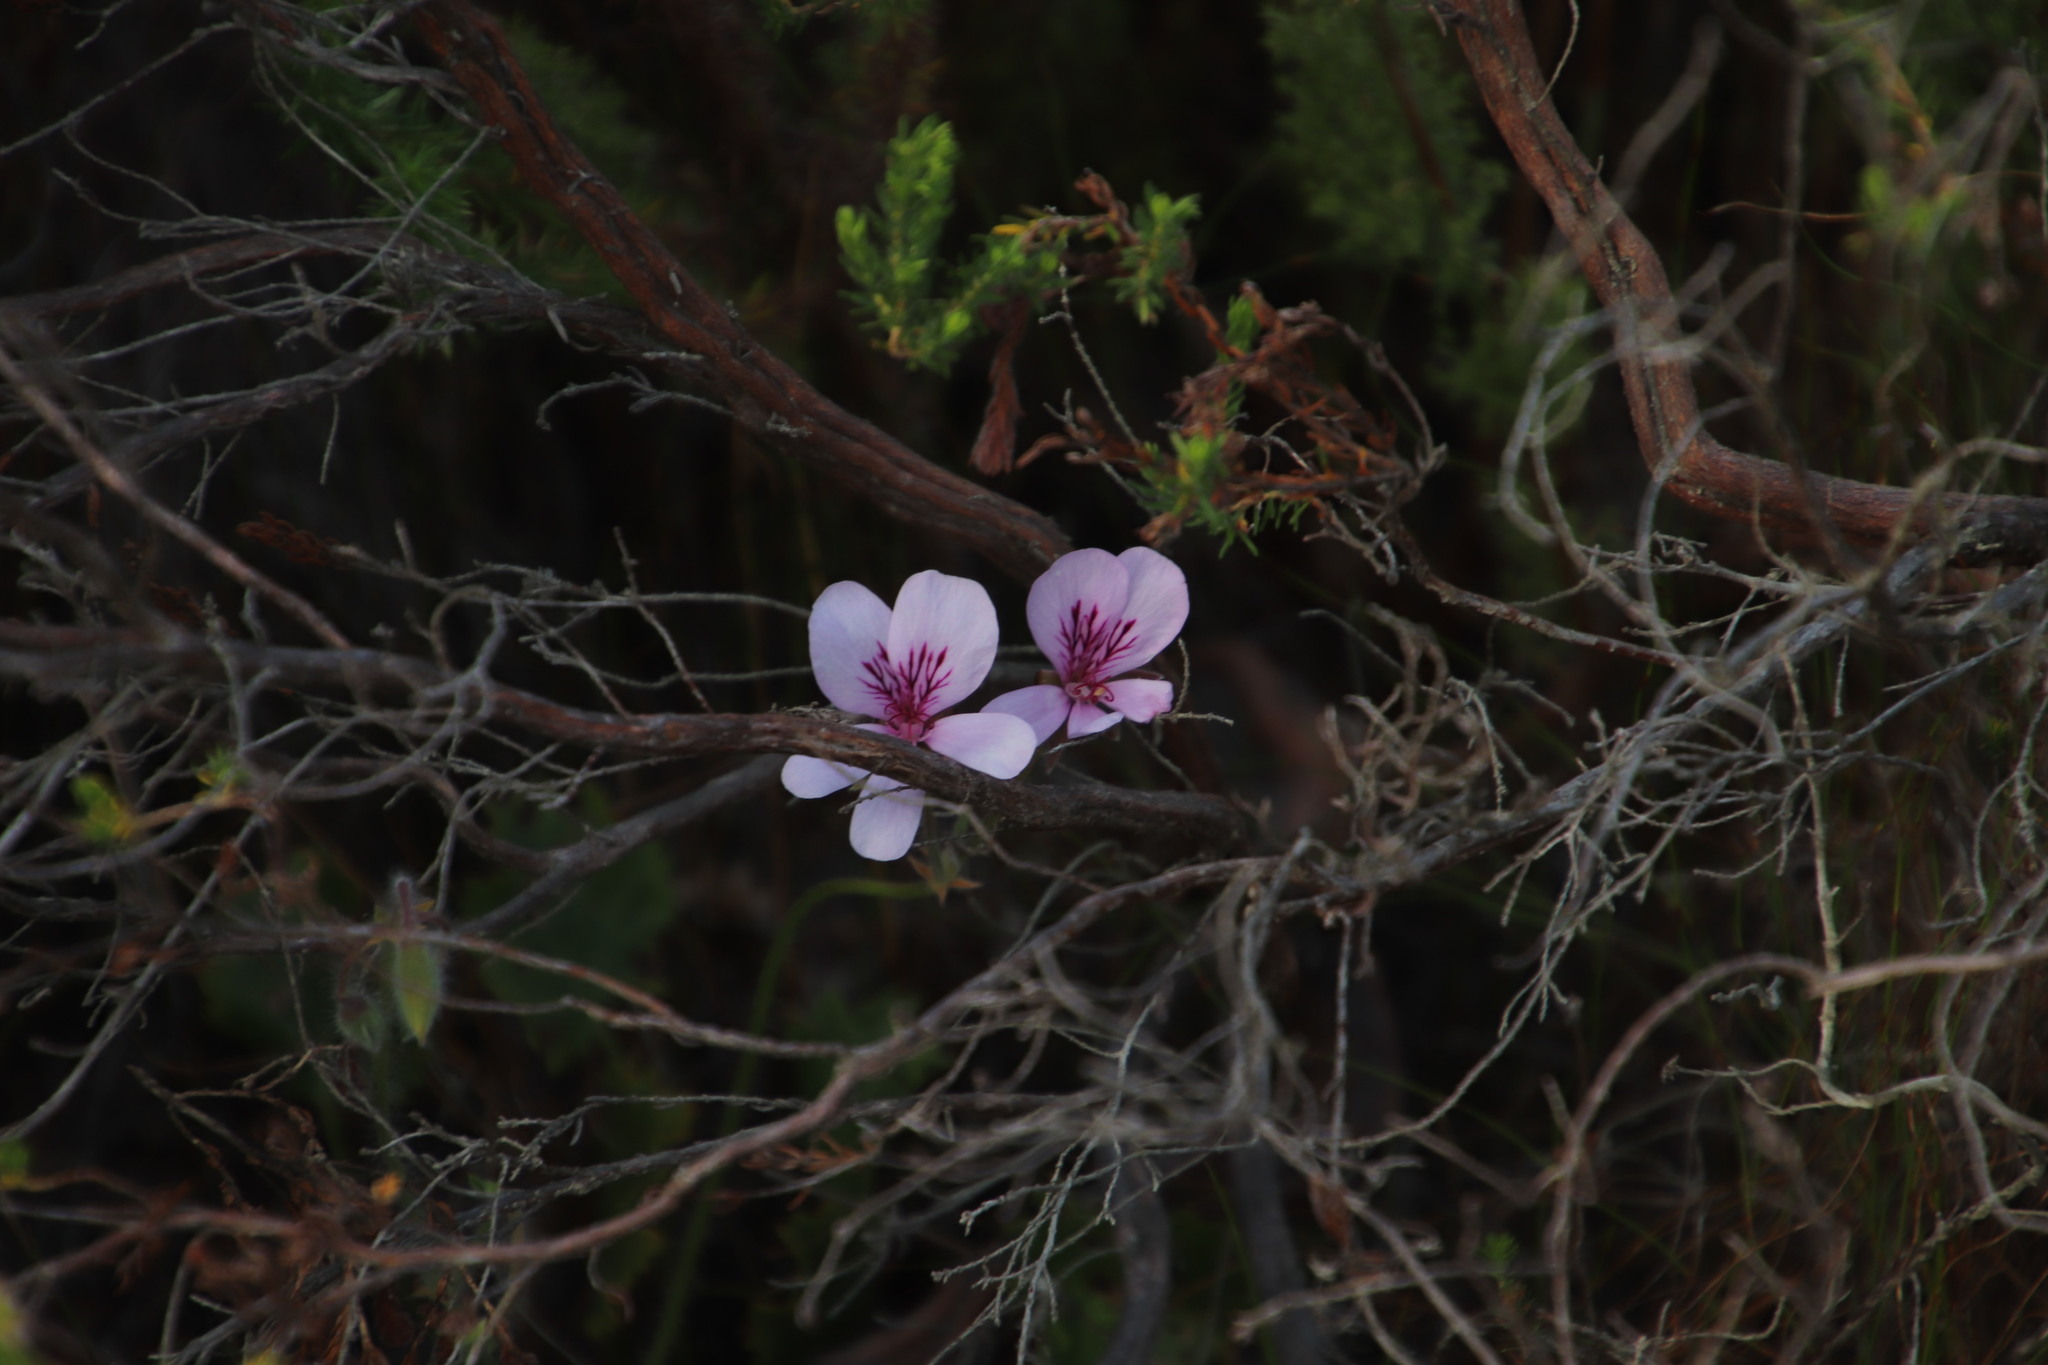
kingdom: Plantae
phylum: Tracheophyta
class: Magnoliopsida
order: Geraniales
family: Geraniaceae
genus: Pelargonium
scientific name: Pelargonium elegans
